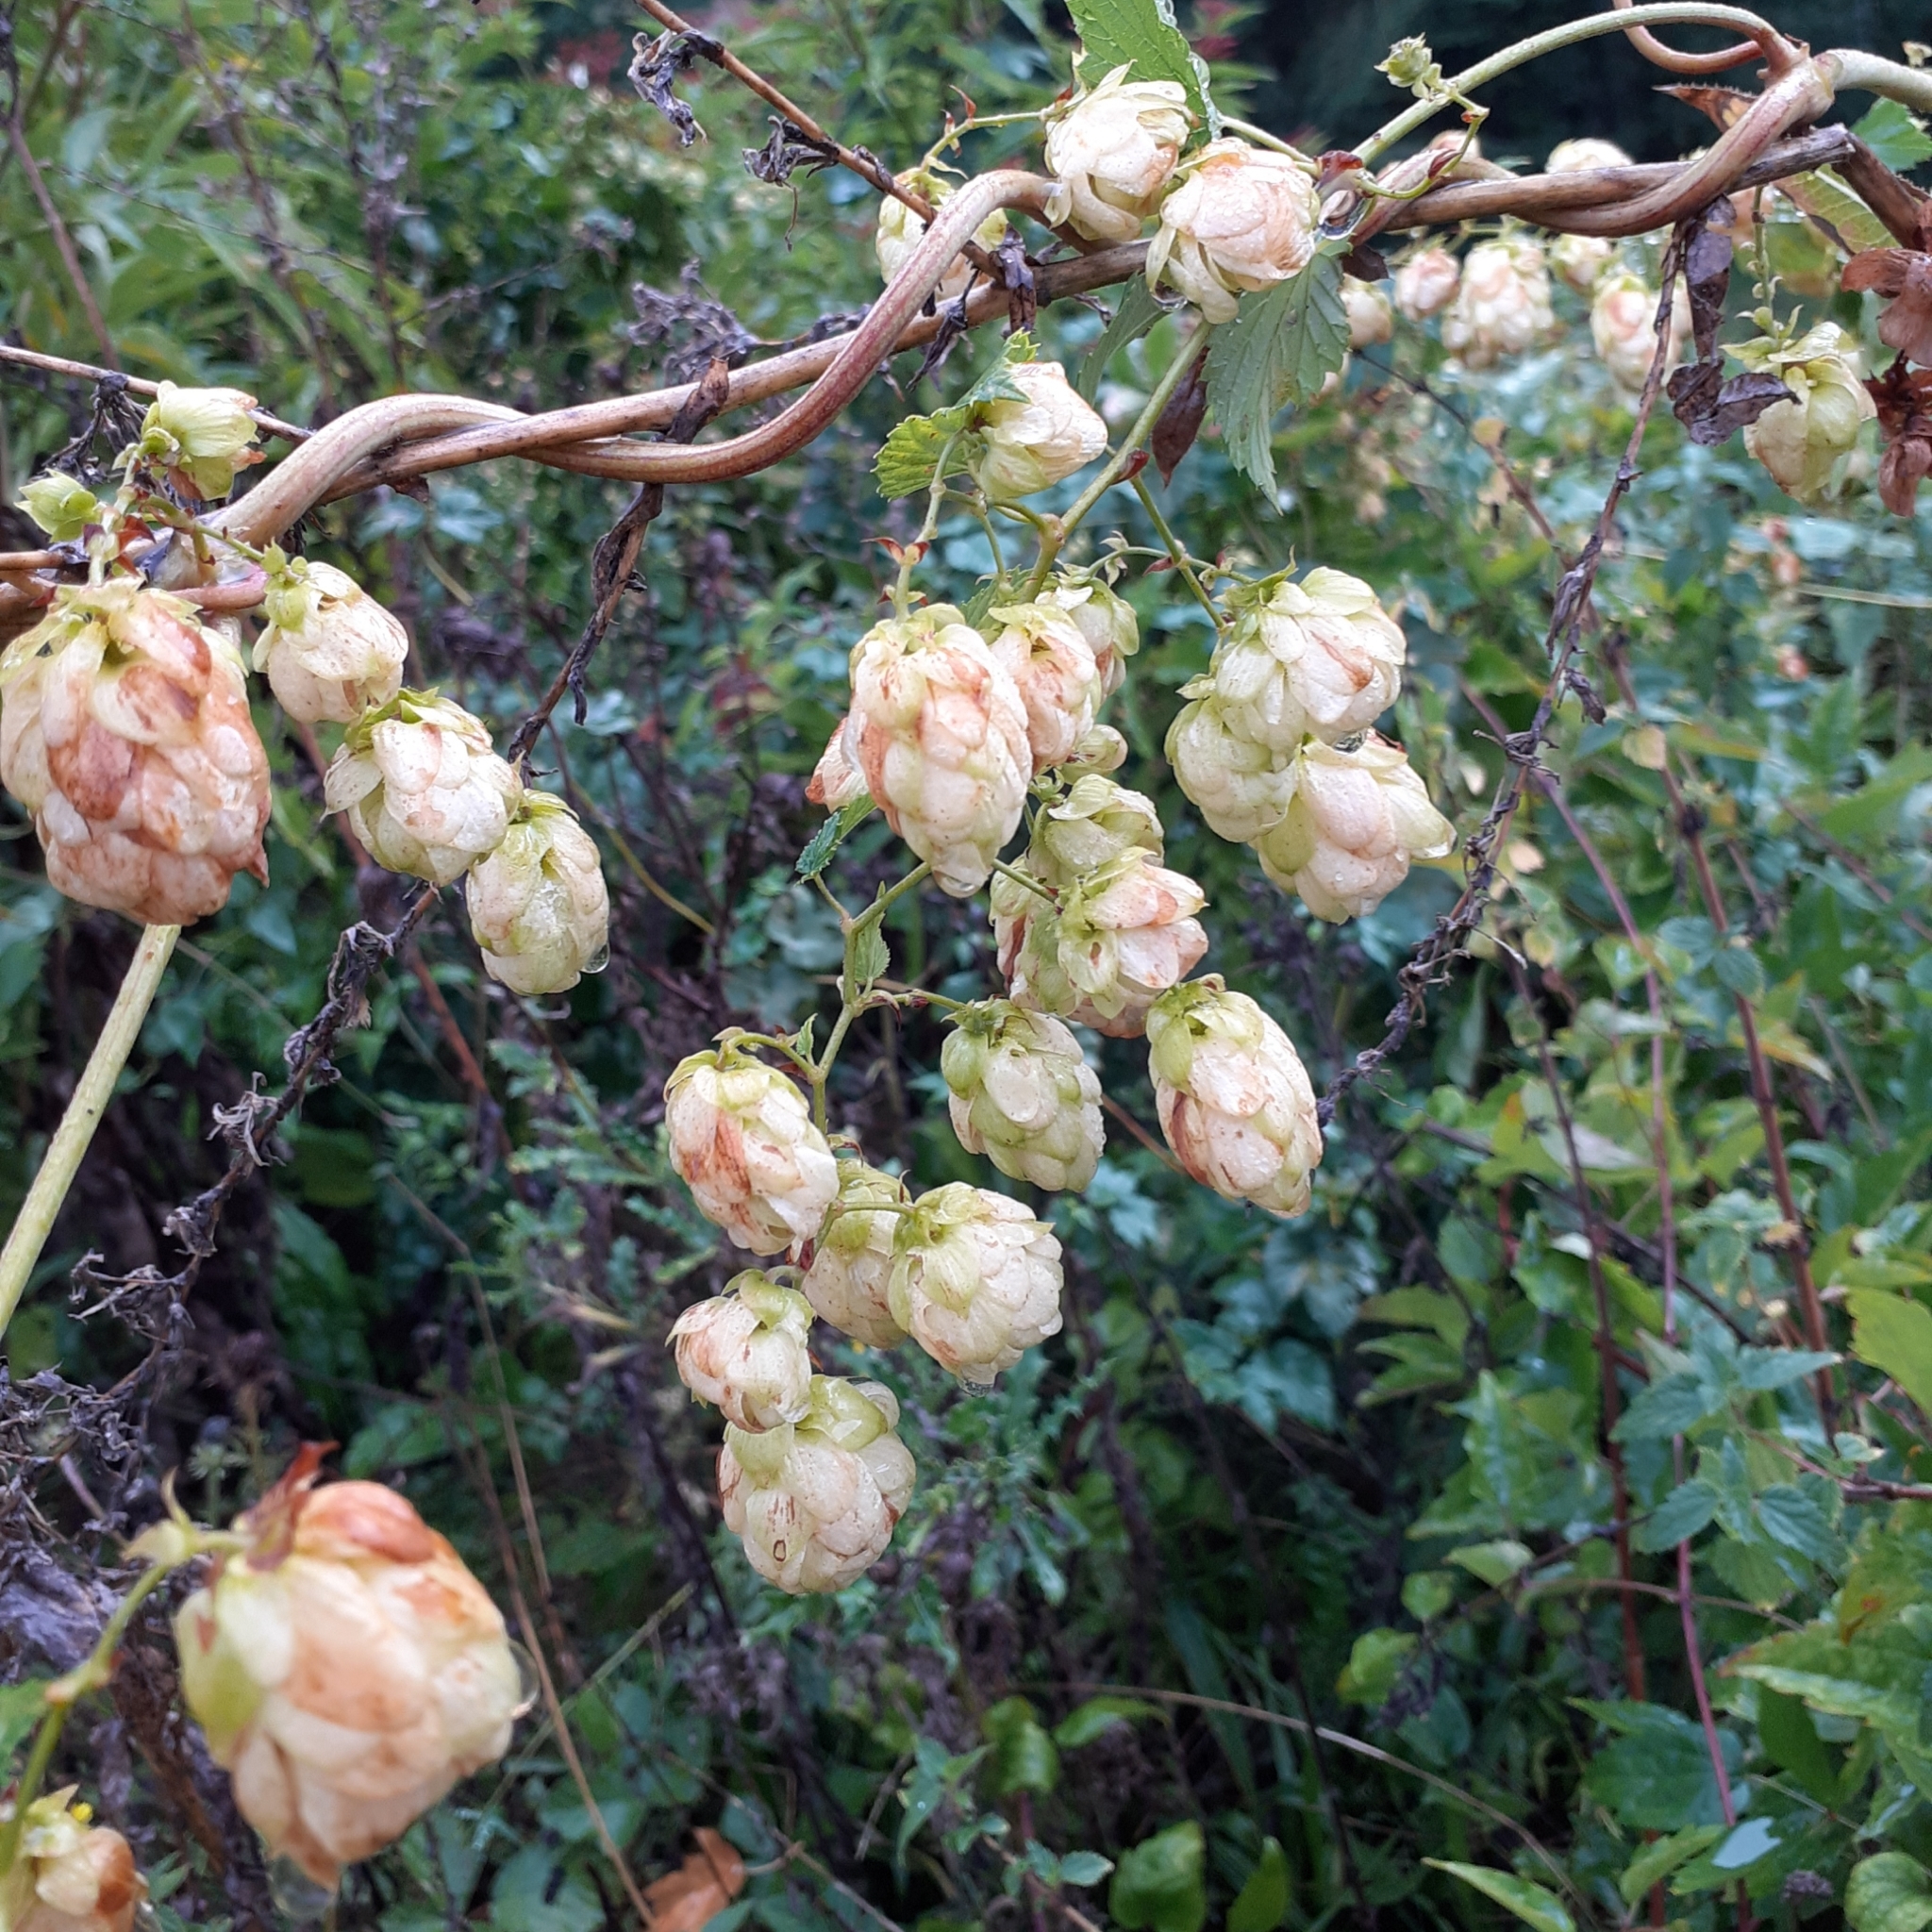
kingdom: Plantae
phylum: Tracheophyta
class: Magnoliopsida
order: Rosales
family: Cannabaceae
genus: Humulus
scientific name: Humulus lupulus
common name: Hop
